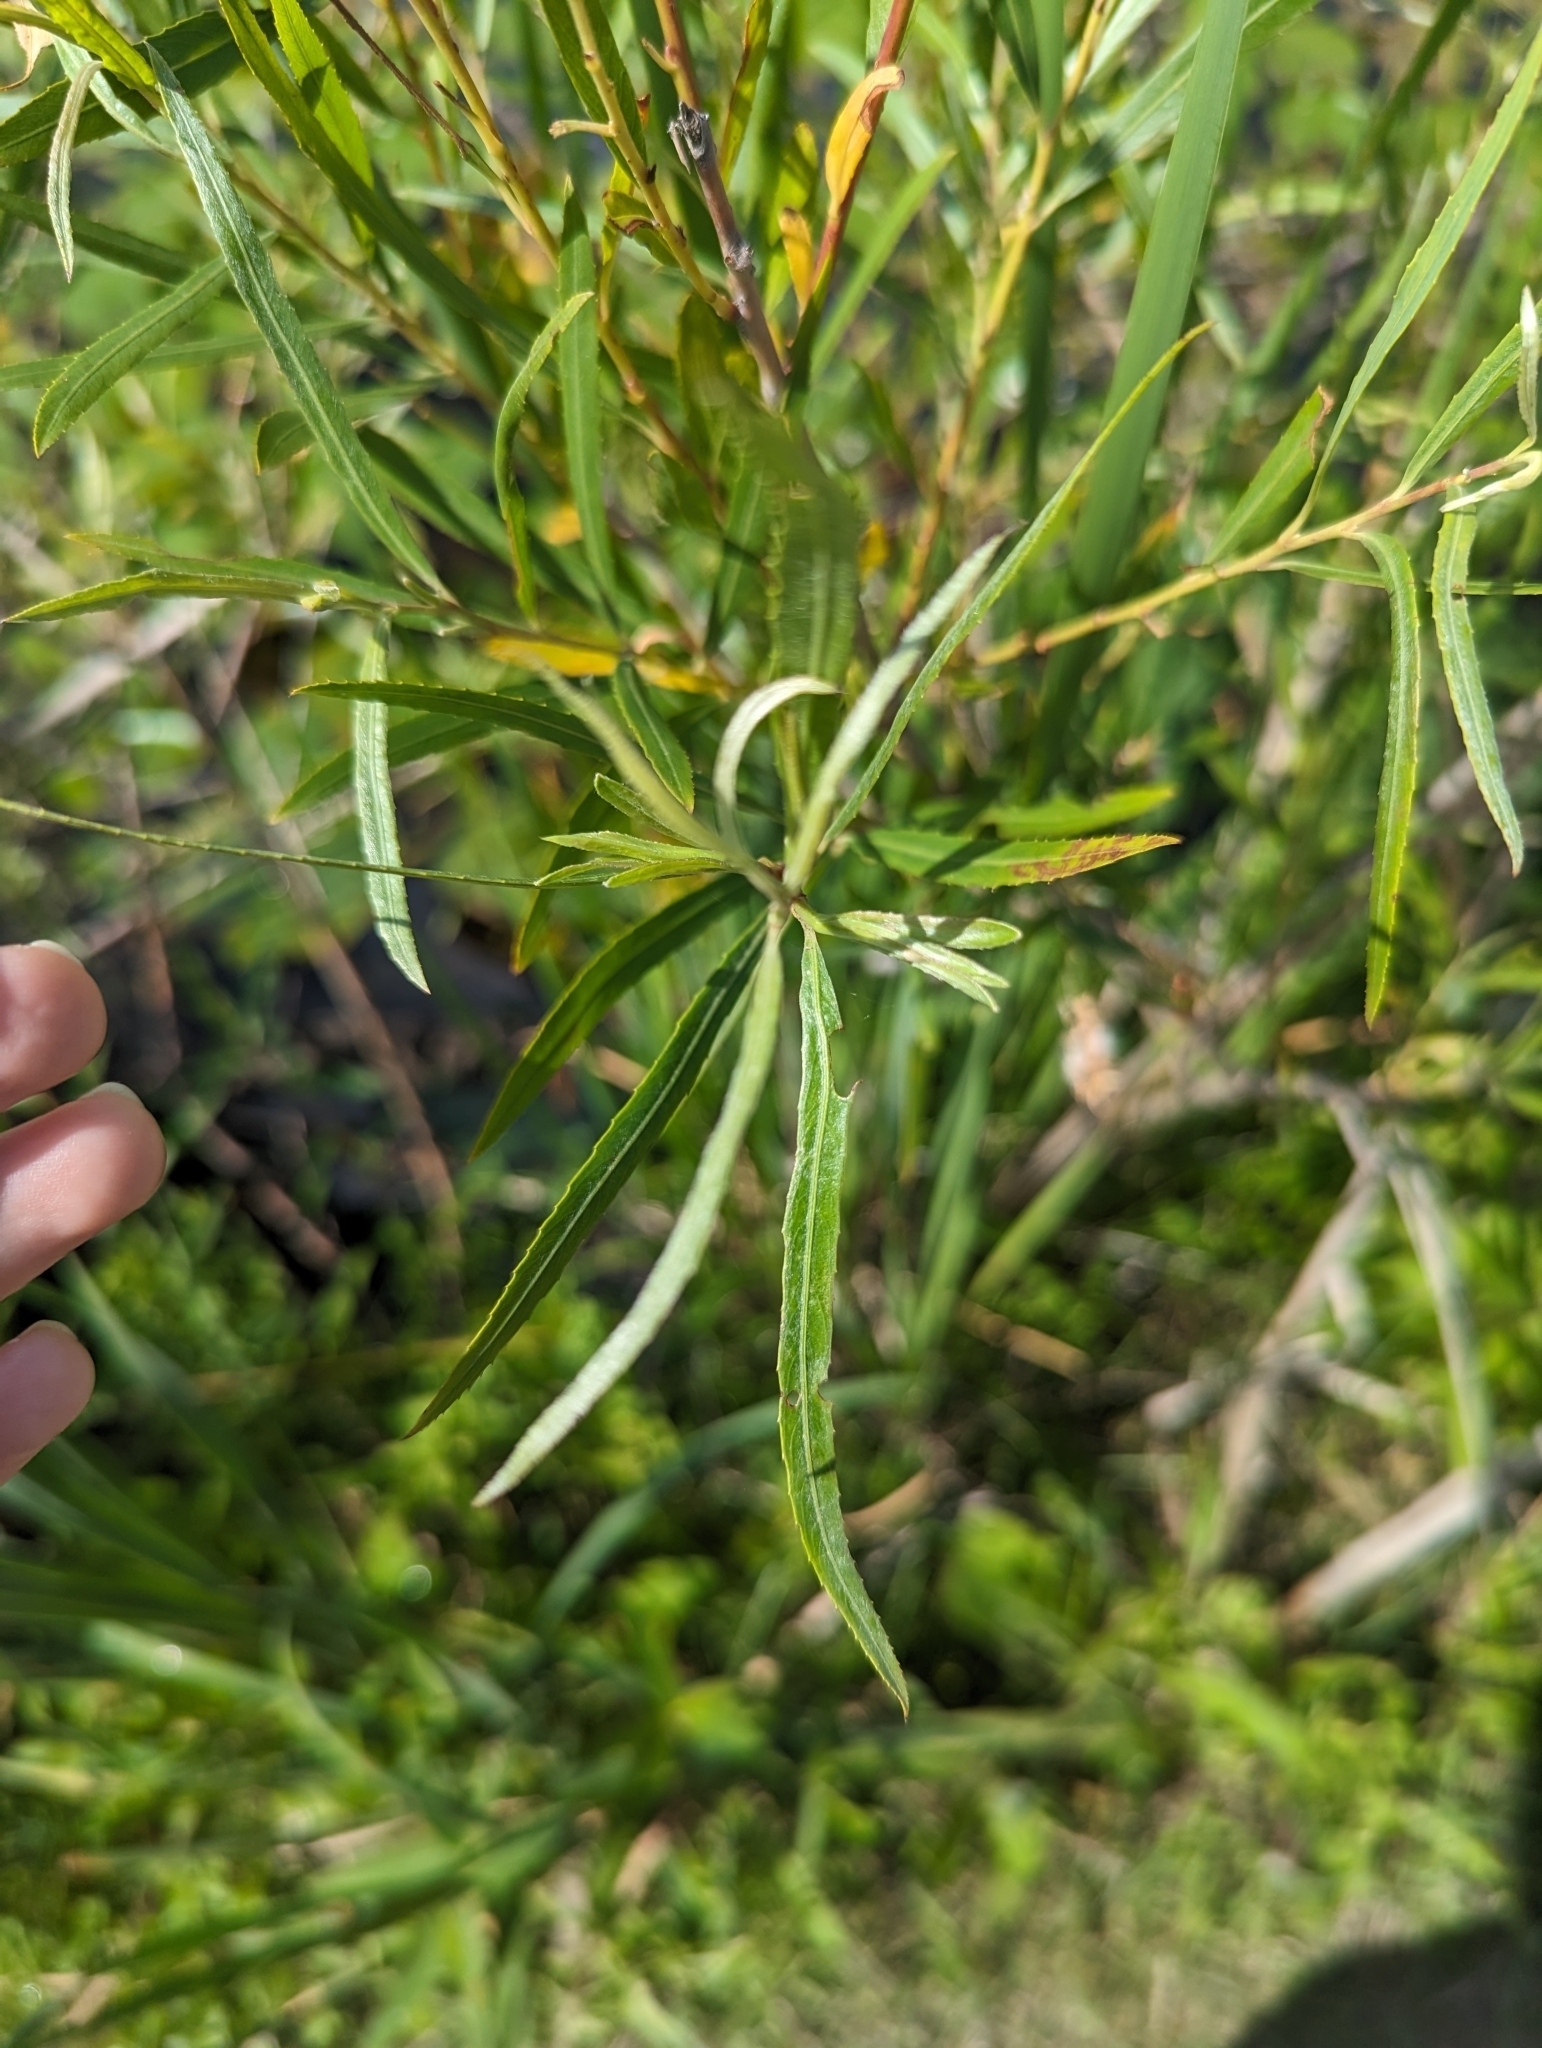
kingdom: Plantae
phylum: Tracheophyta
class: Magnoliopsida
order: Malpighiales
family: Salicaceae
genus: Salix
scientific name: Salix interior
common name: Sandbar willow
